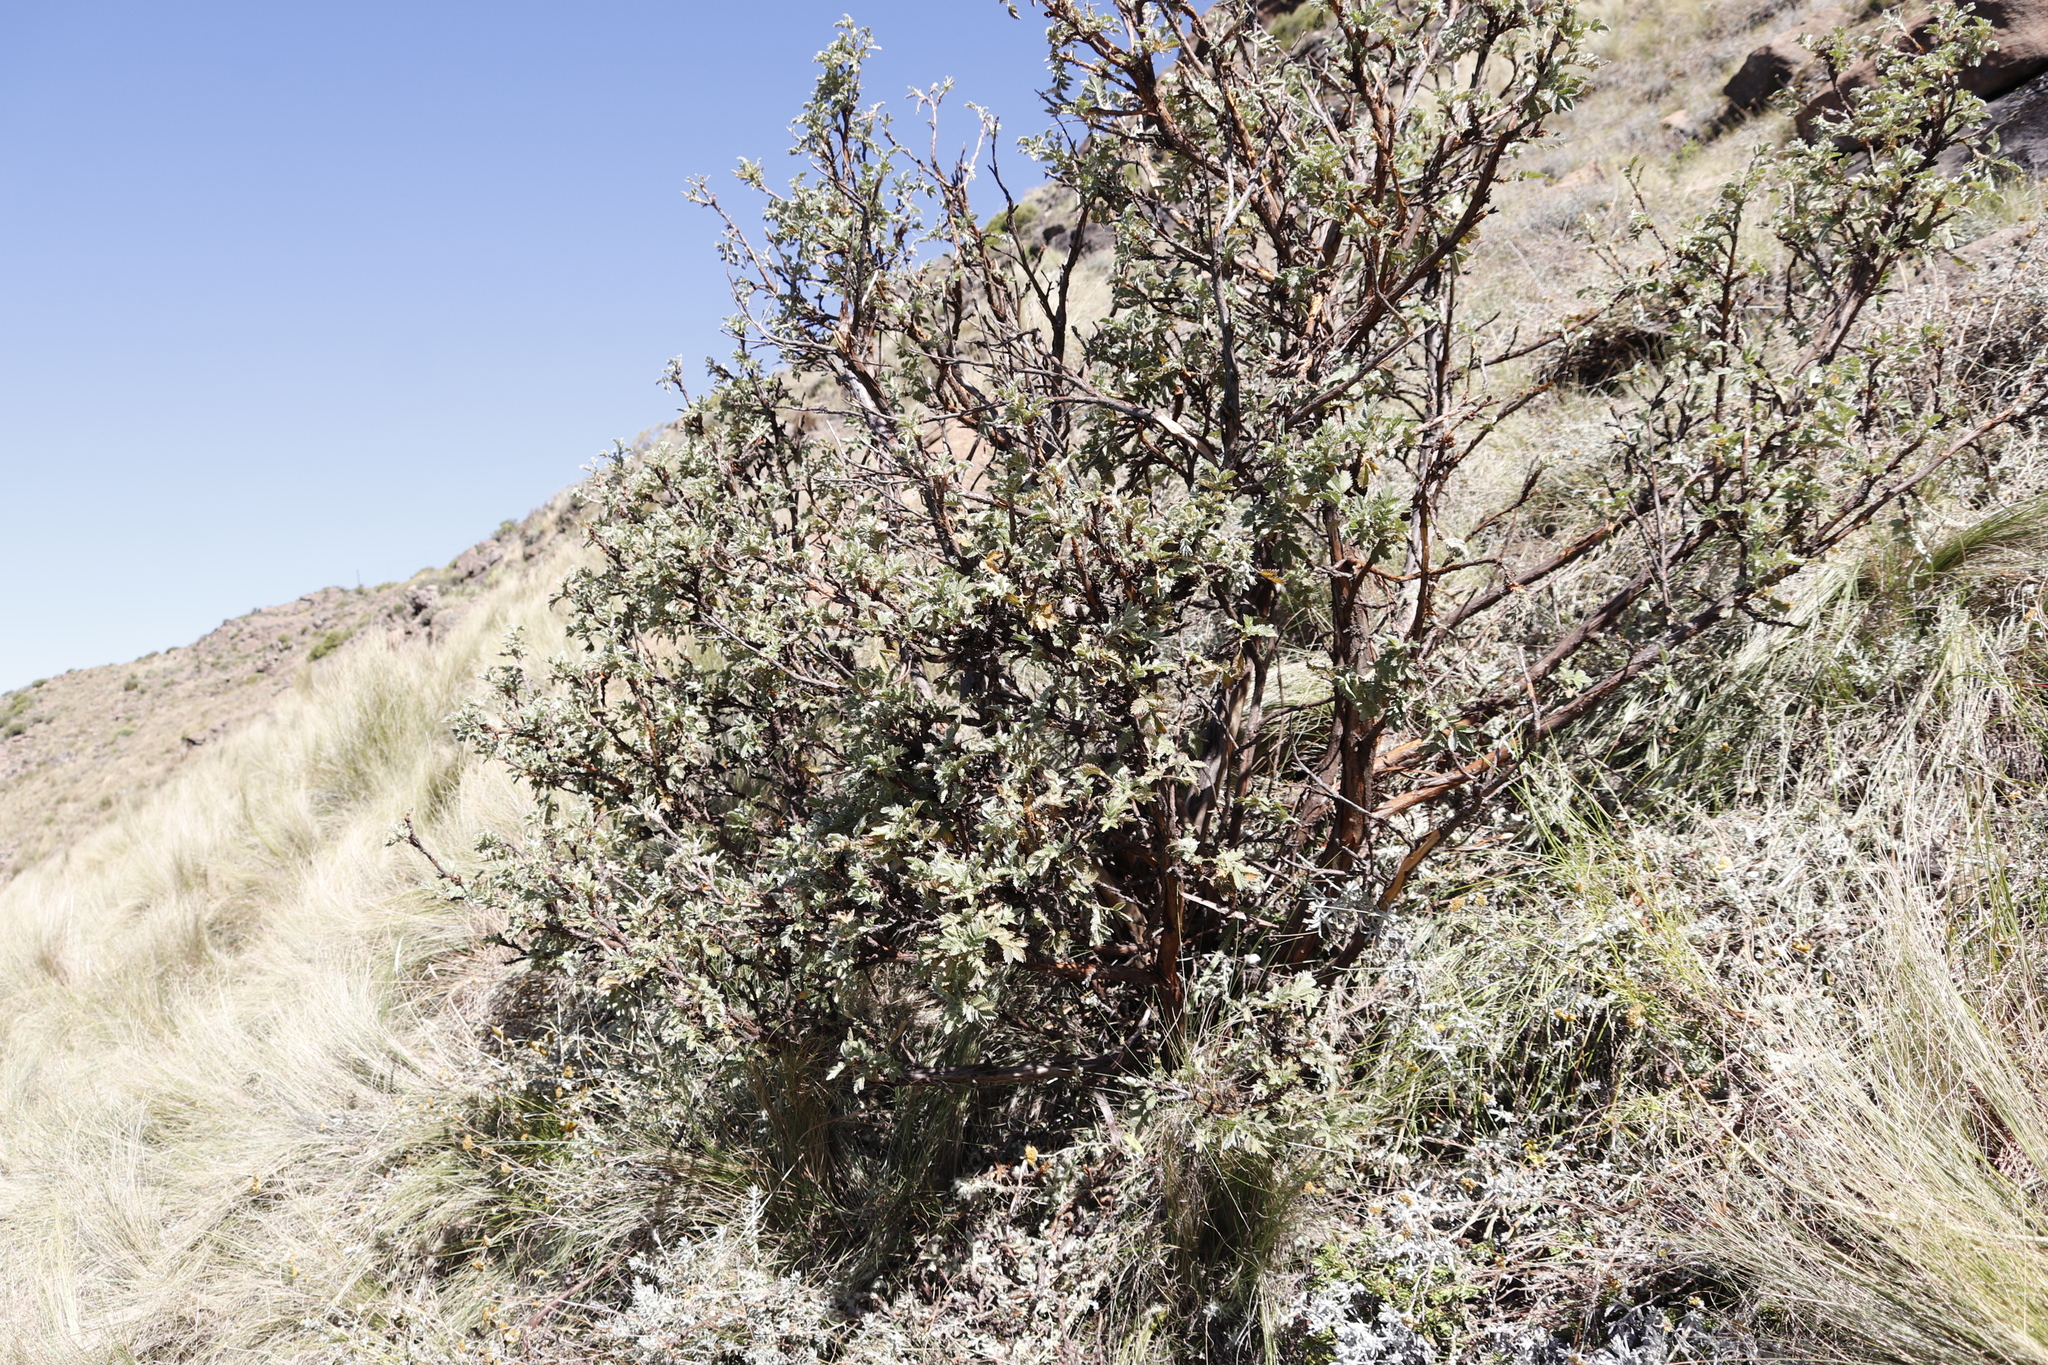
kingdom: Plantae
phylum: Tracheophyta
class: Magnoliopsida
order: Rosales
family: Rosaceae
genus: Leucosidea
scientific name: Leucosidea sericea
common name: Oldwood
